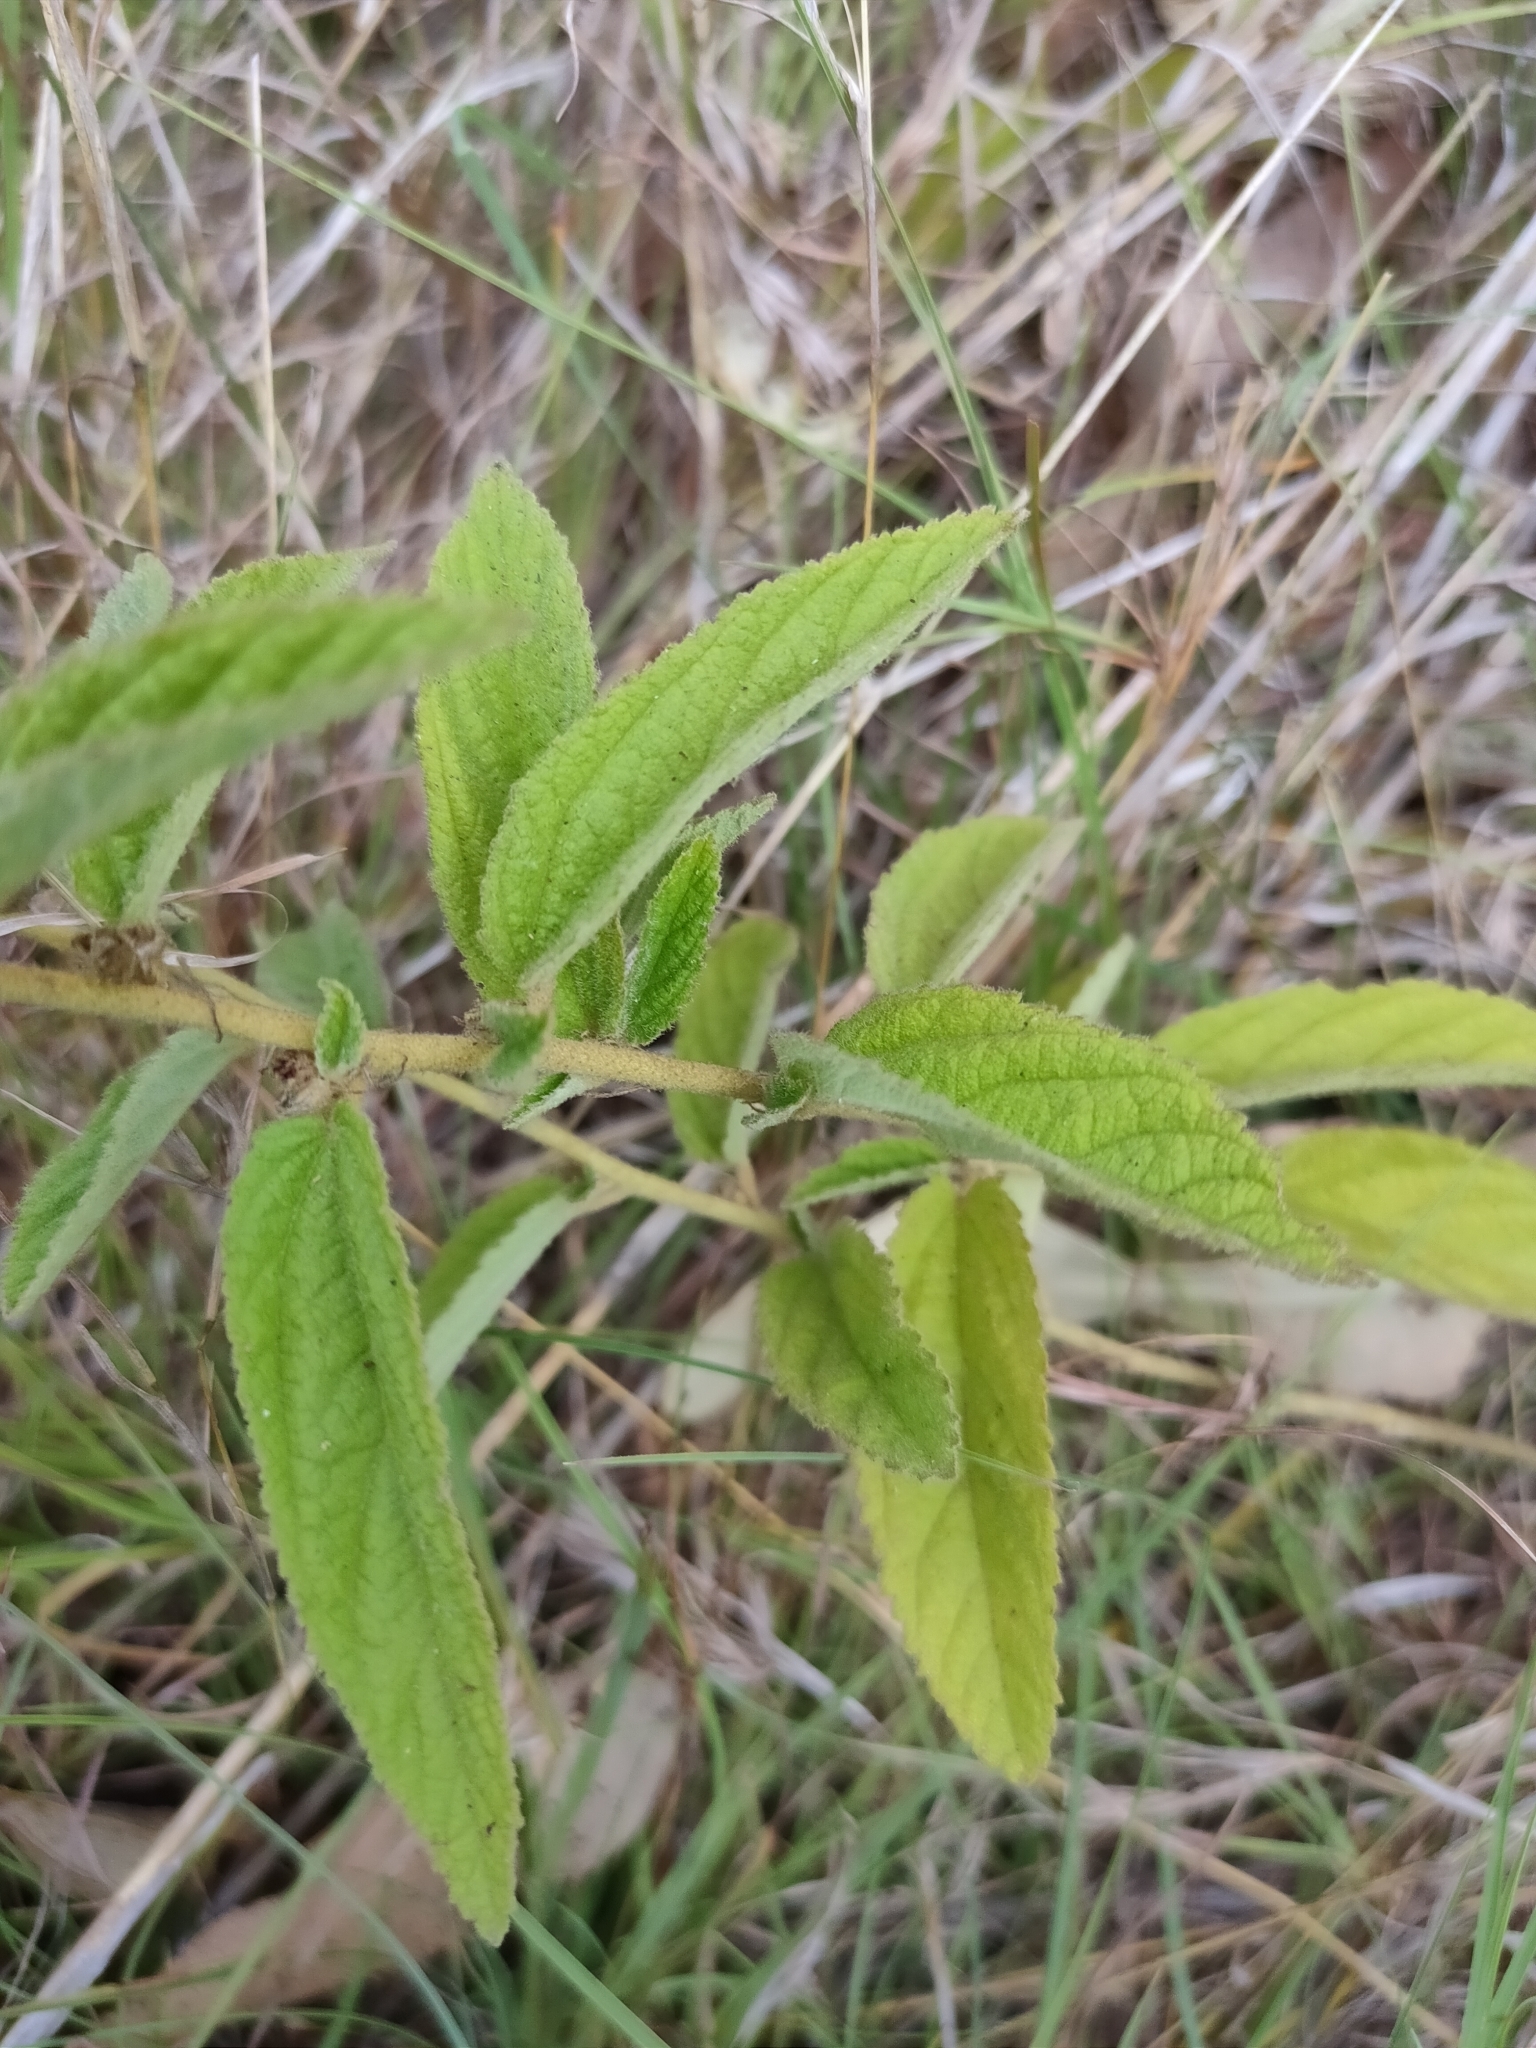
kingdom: Plantae
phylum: Tracheophyta
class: Magnoliopsida
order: Malvales
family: Malvaceae
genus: Sida
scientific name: Sida hackettiana
